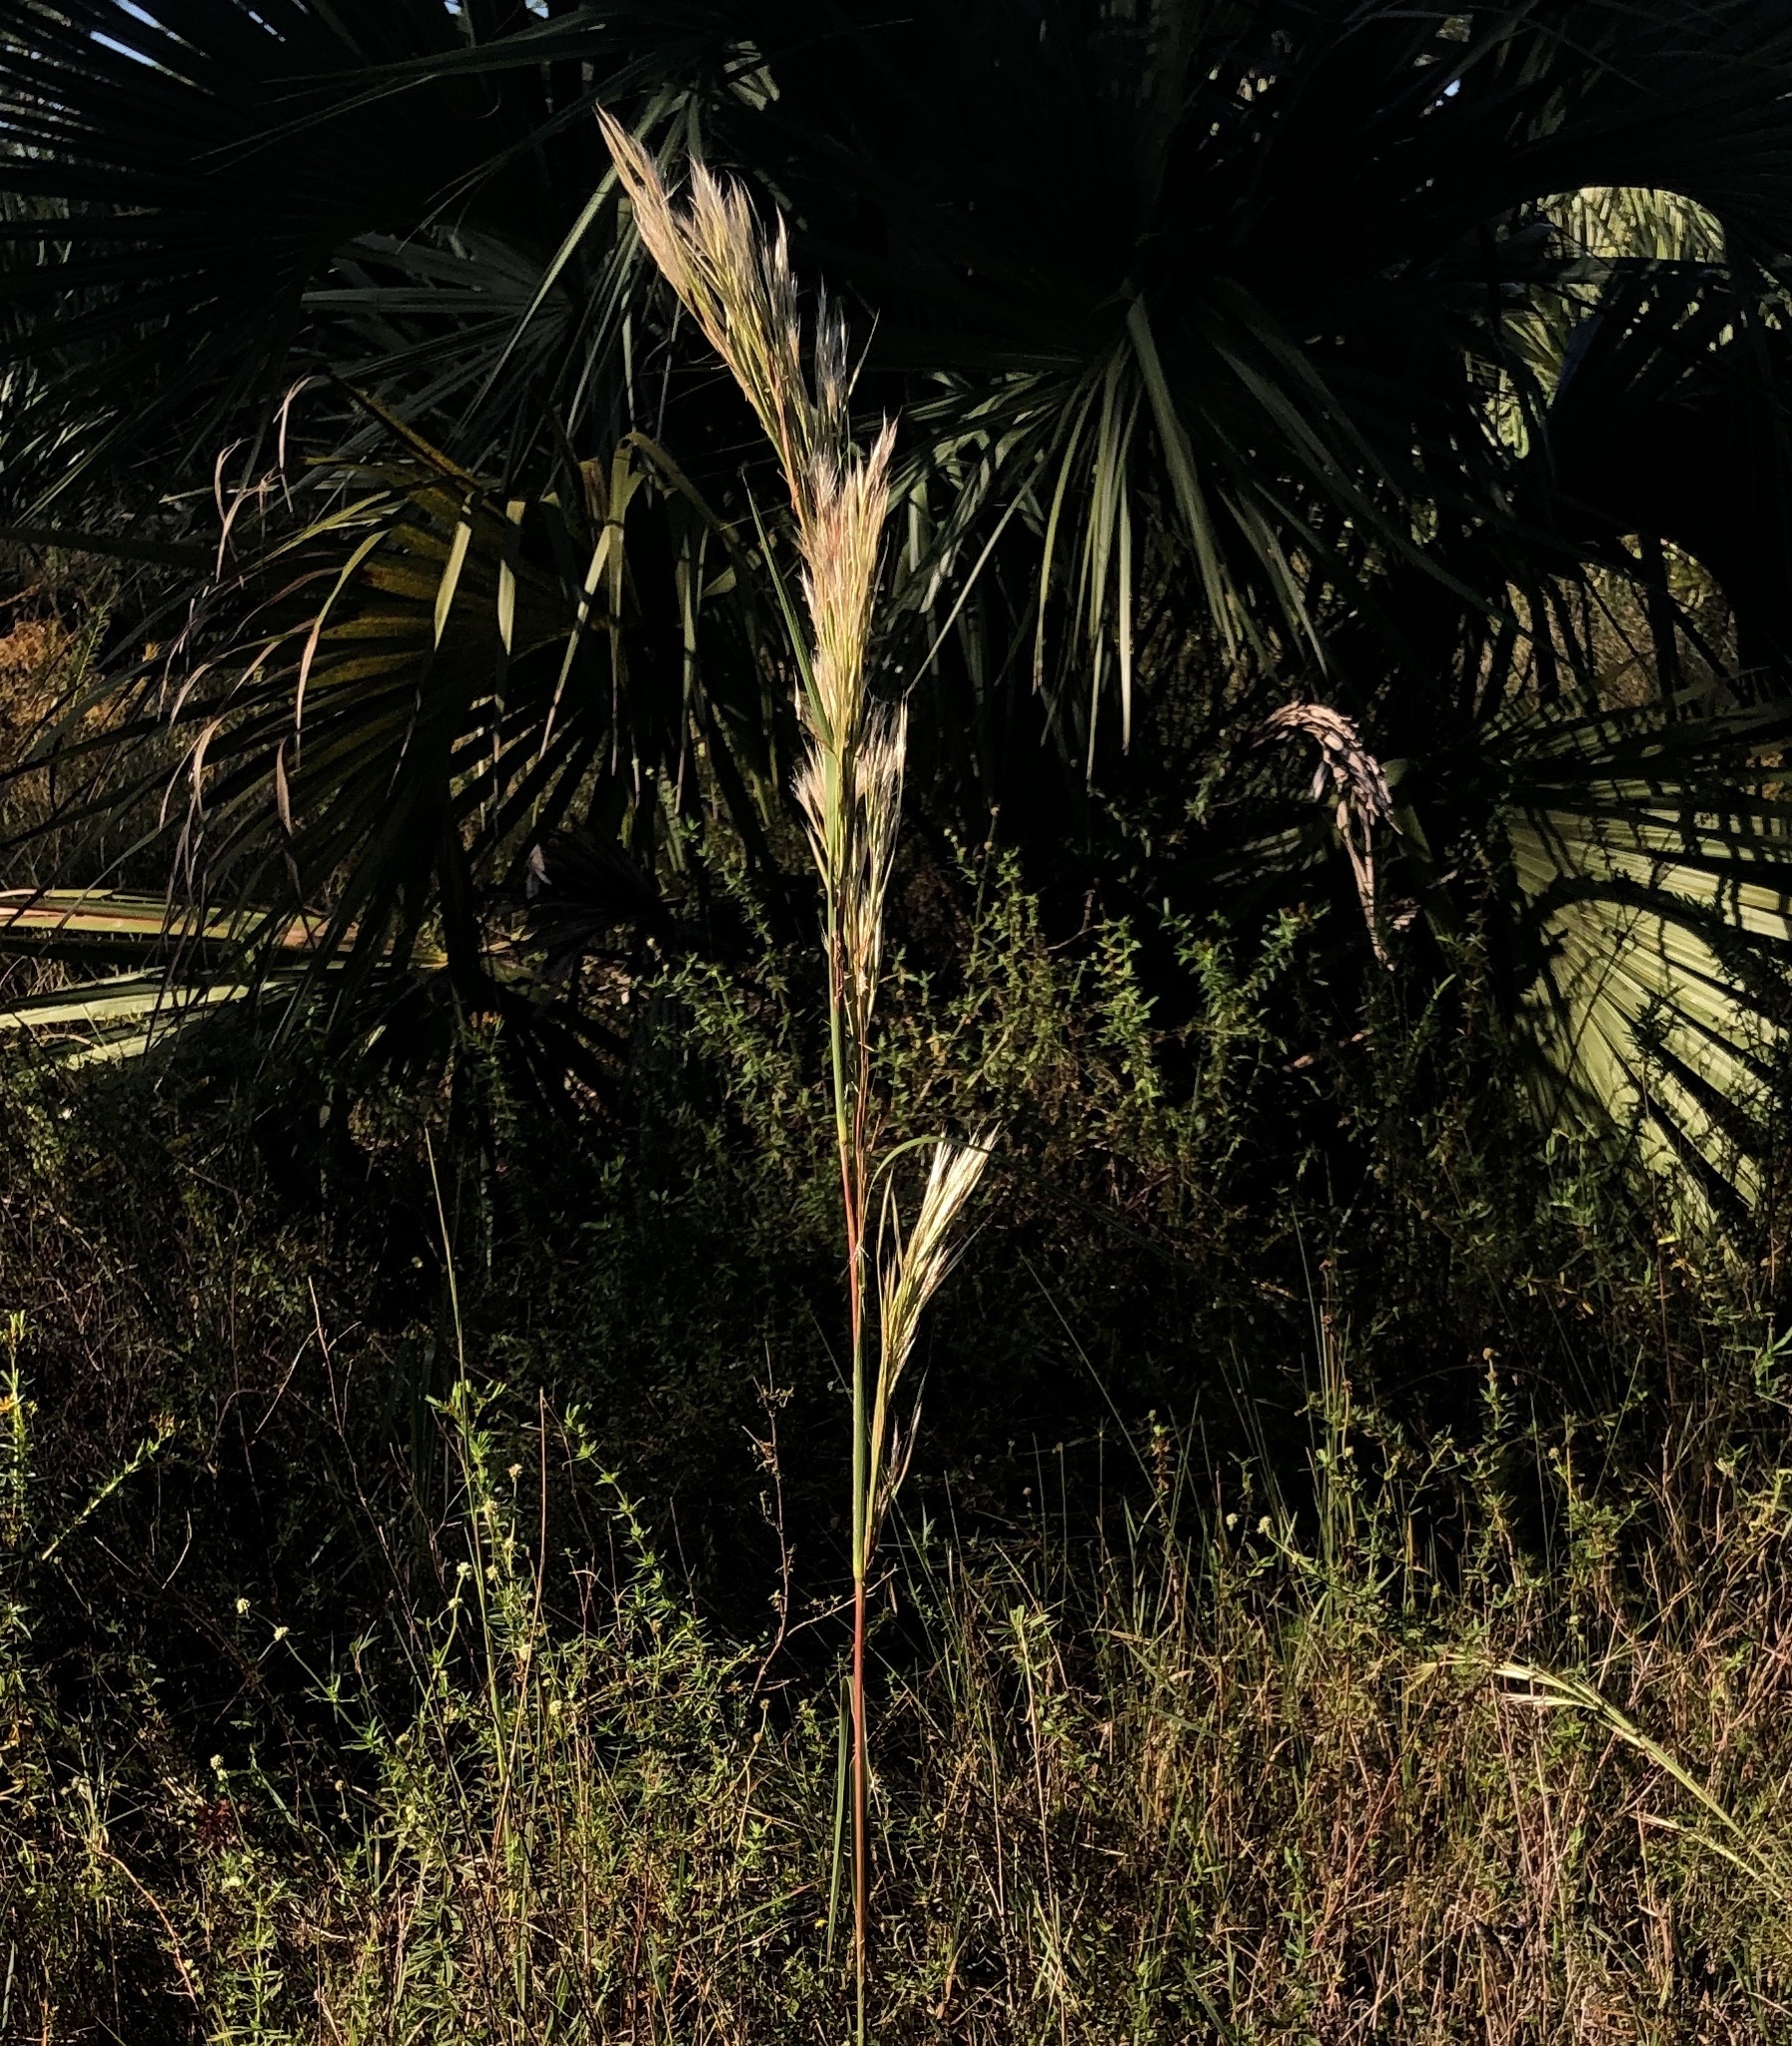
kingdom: Plantae
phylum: Tracheophyta
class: Liliopsida
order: Poales
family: Poaceae
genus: Andropogon
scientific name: Andropogon tenuispatheus
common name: Bushy bluestem
